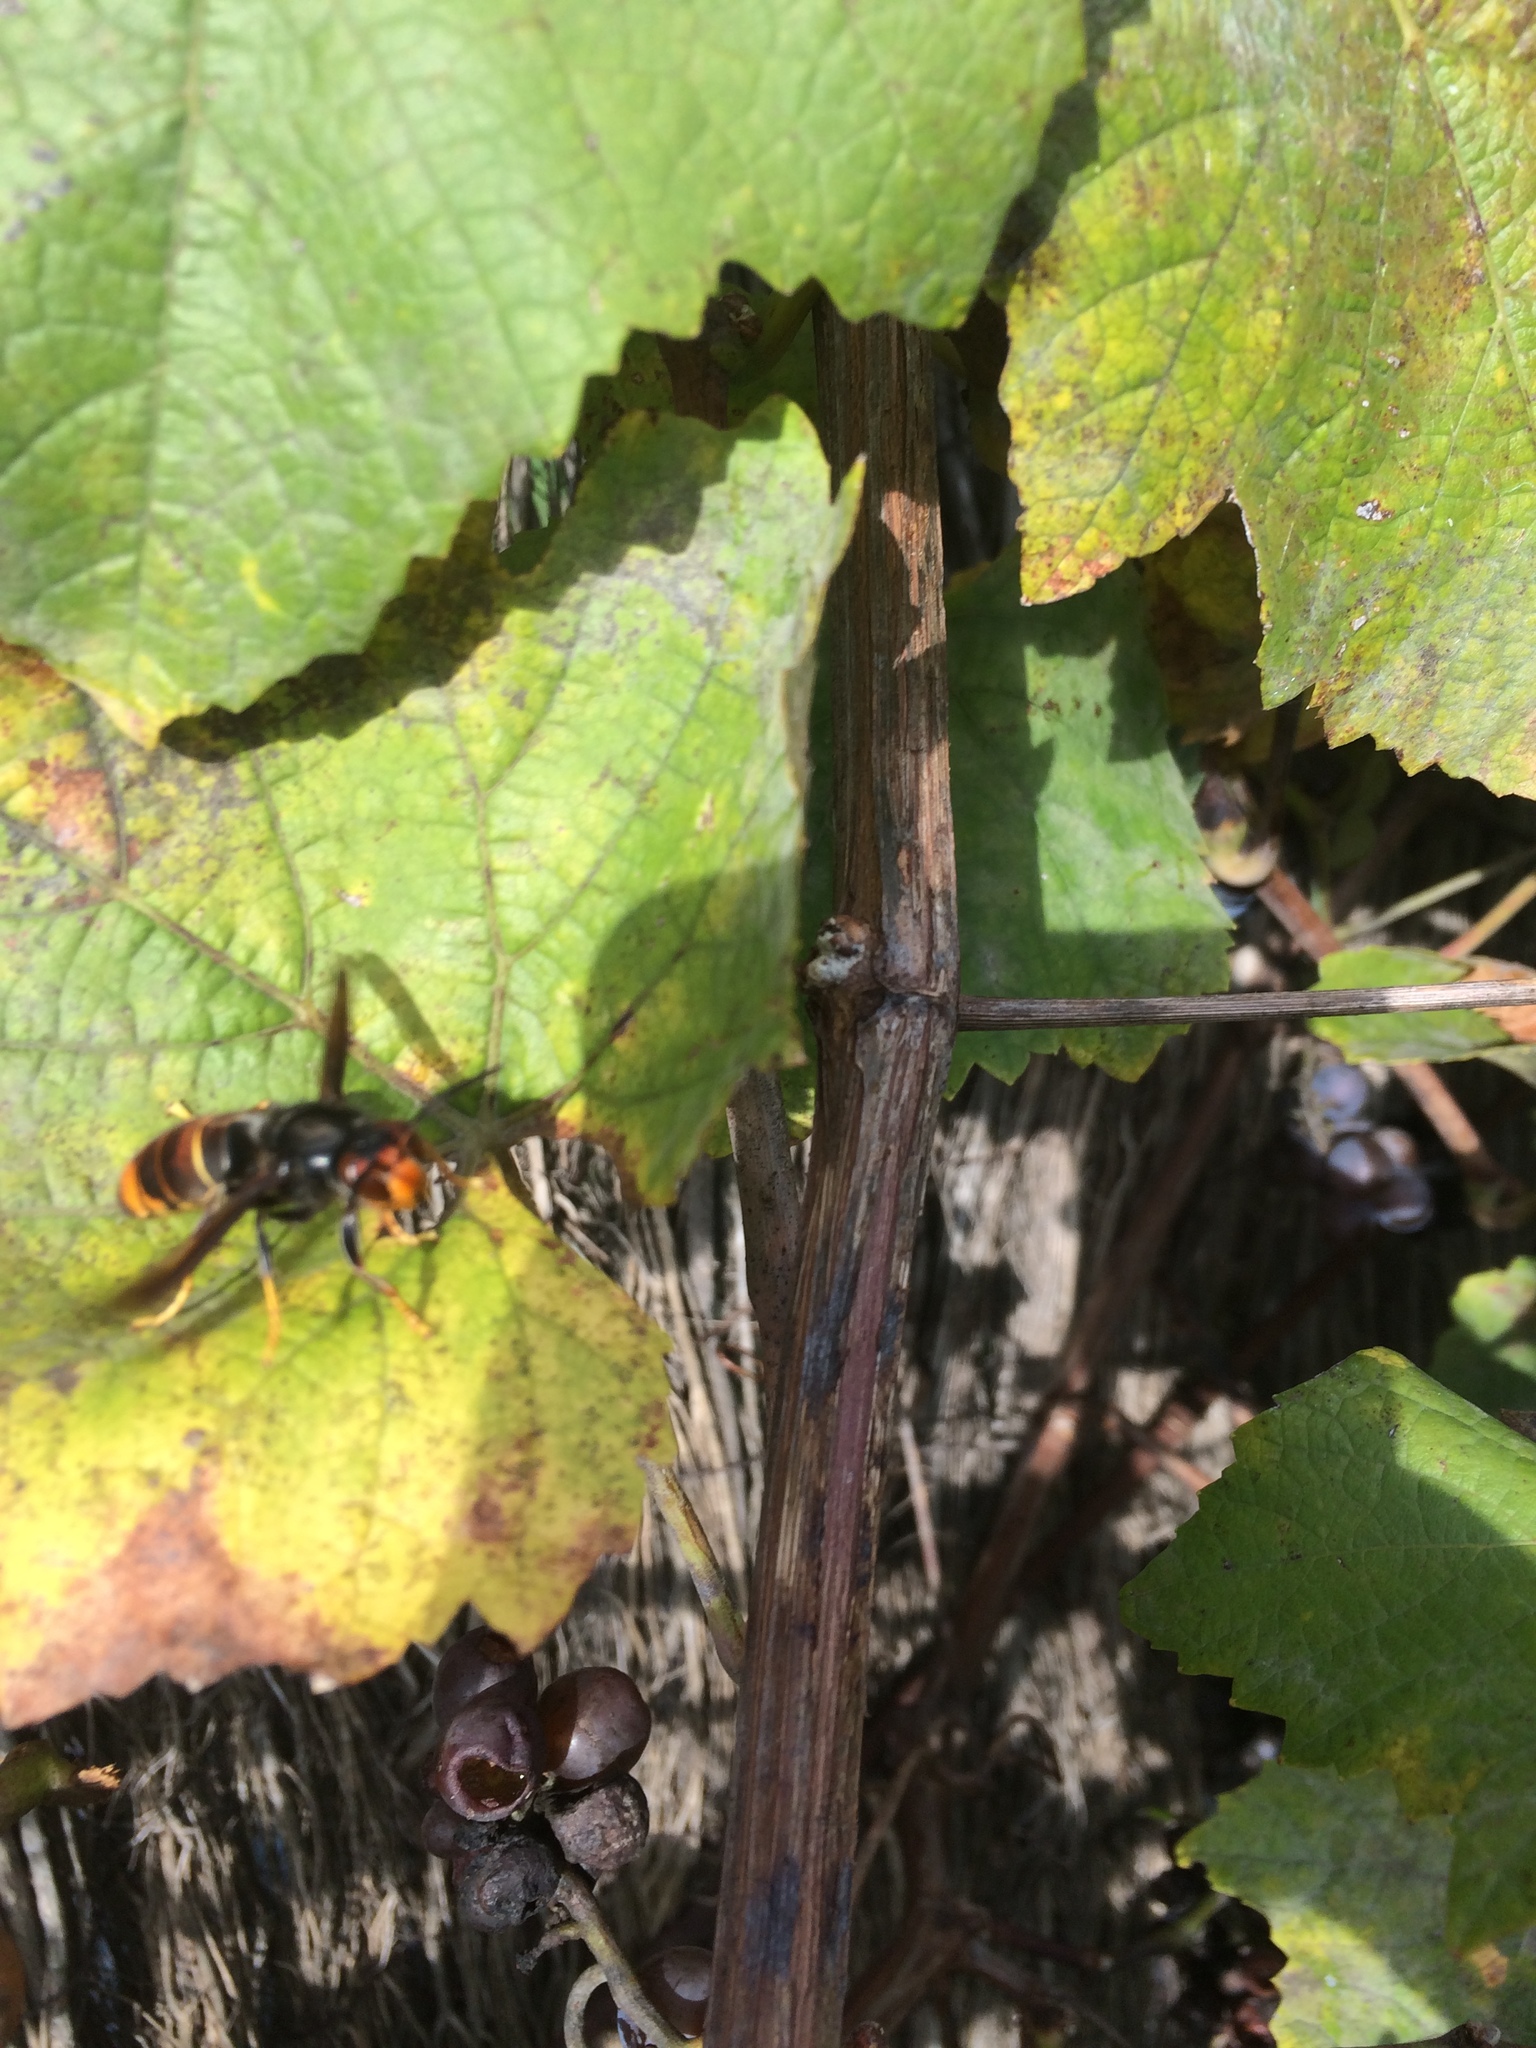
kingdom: Animalia
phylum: Arthropoda
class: Insecta
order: Hymenoptera
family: Vespidae
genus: Vespa
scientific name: Vespa velutina
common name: Asian hornet
